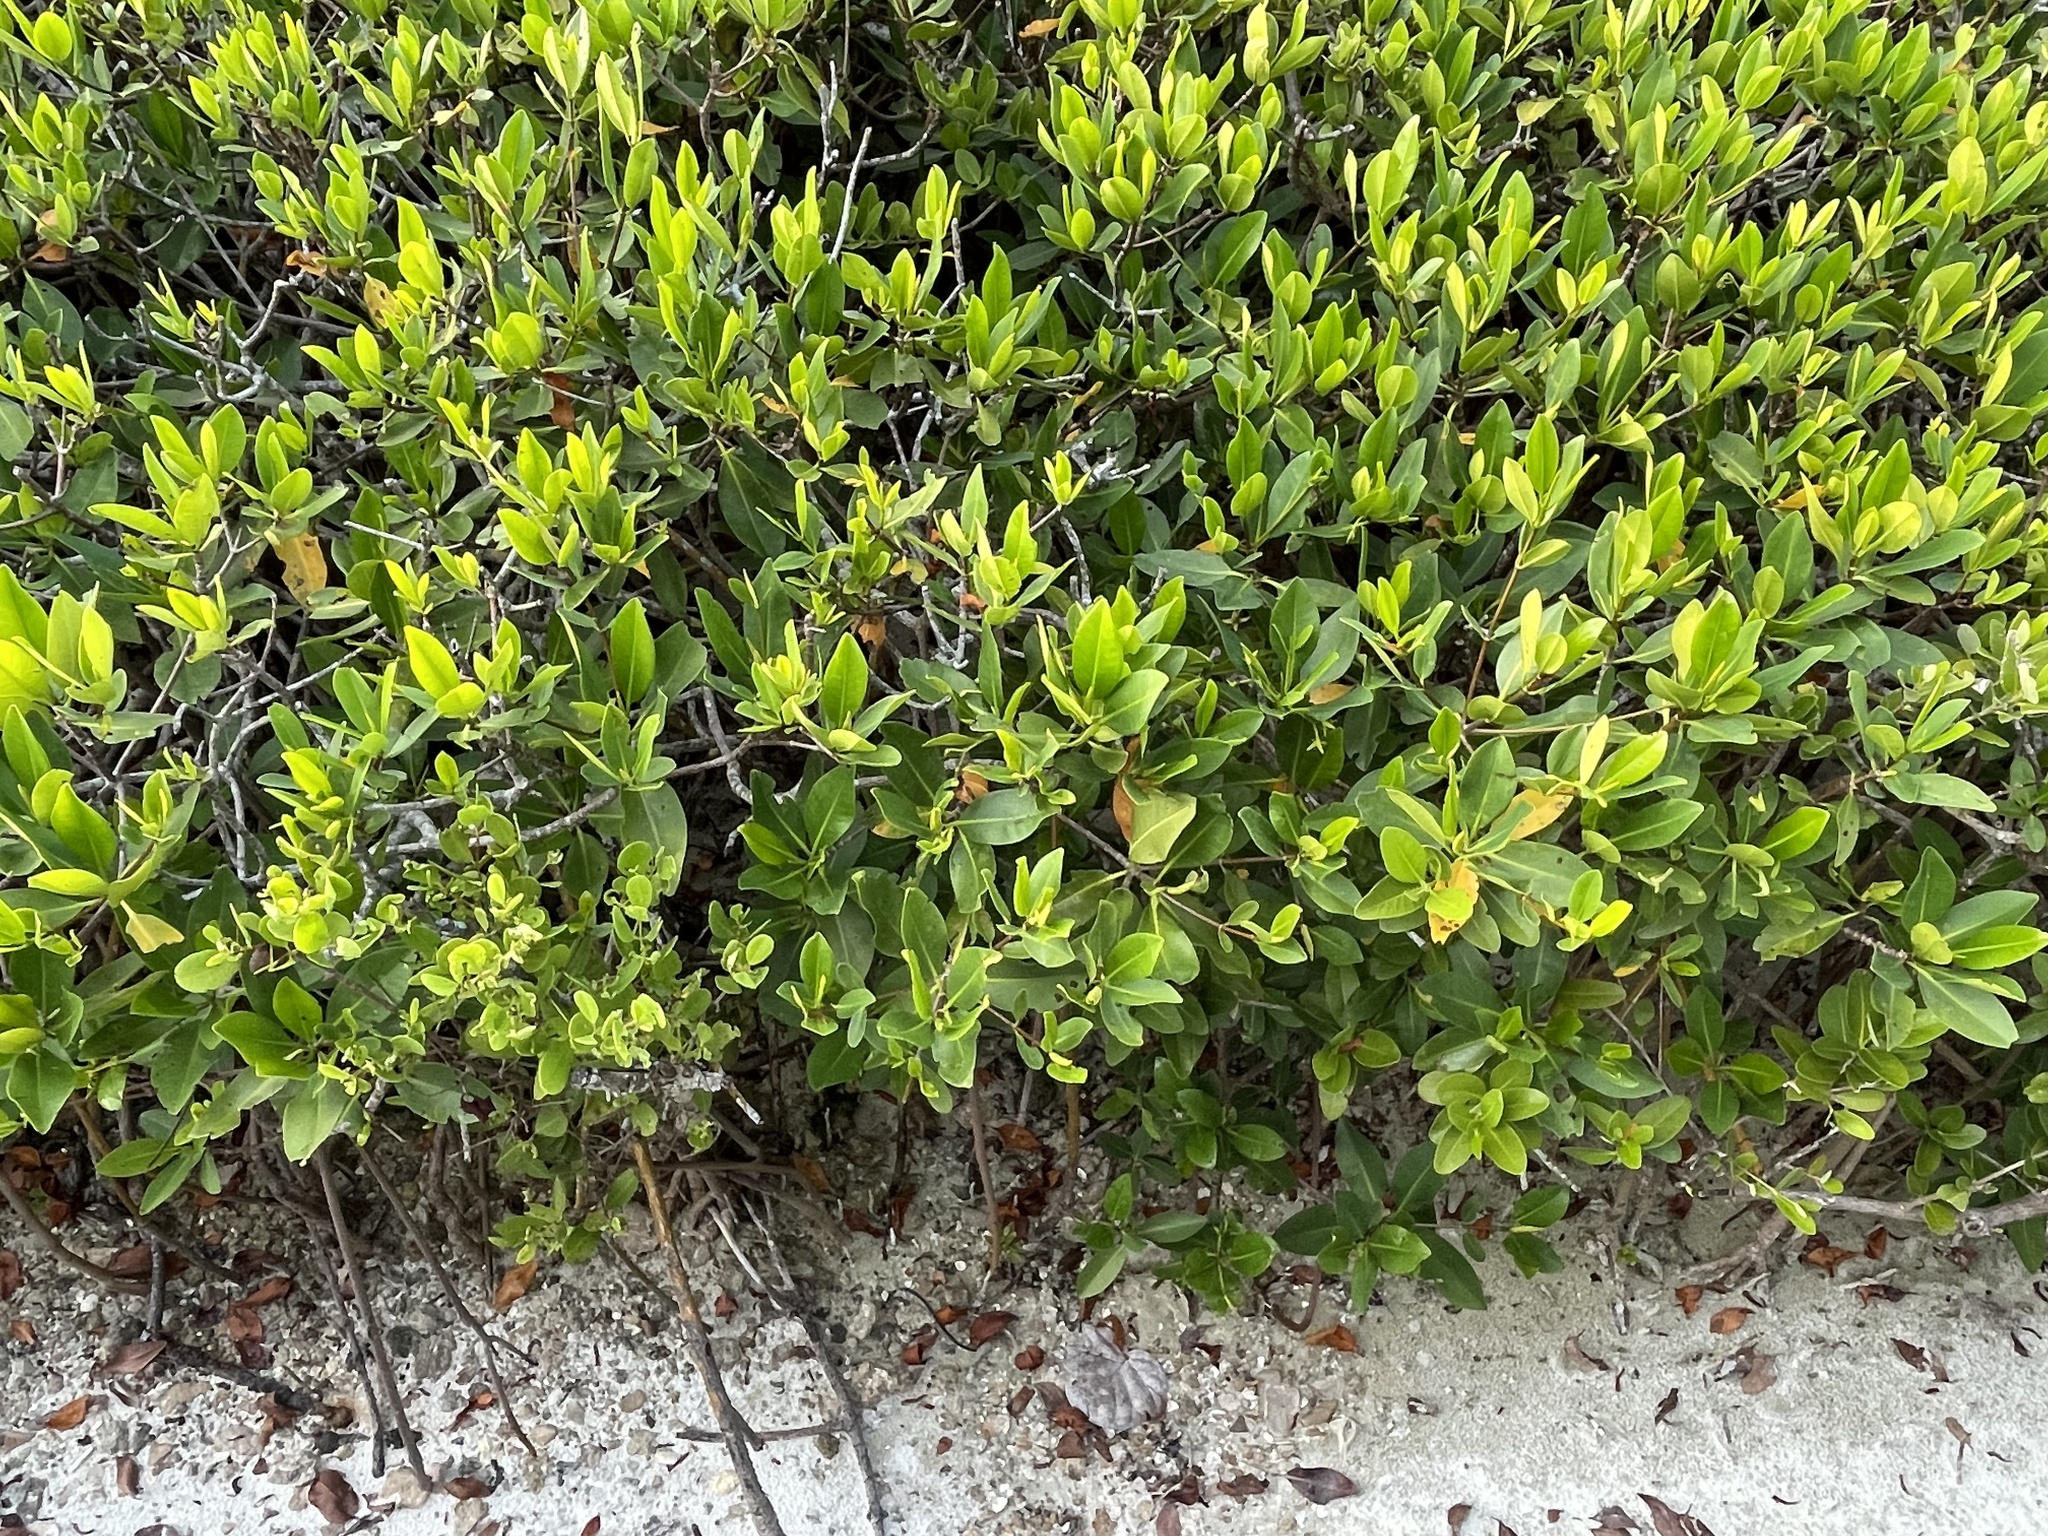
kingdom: Plantae
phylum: Tracheophyta
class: Magnoliopsida
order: Malpighiales
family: Rhizophoraceae
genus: Rhizophora
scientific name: Rhizophora mangle
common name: Red mangrove
